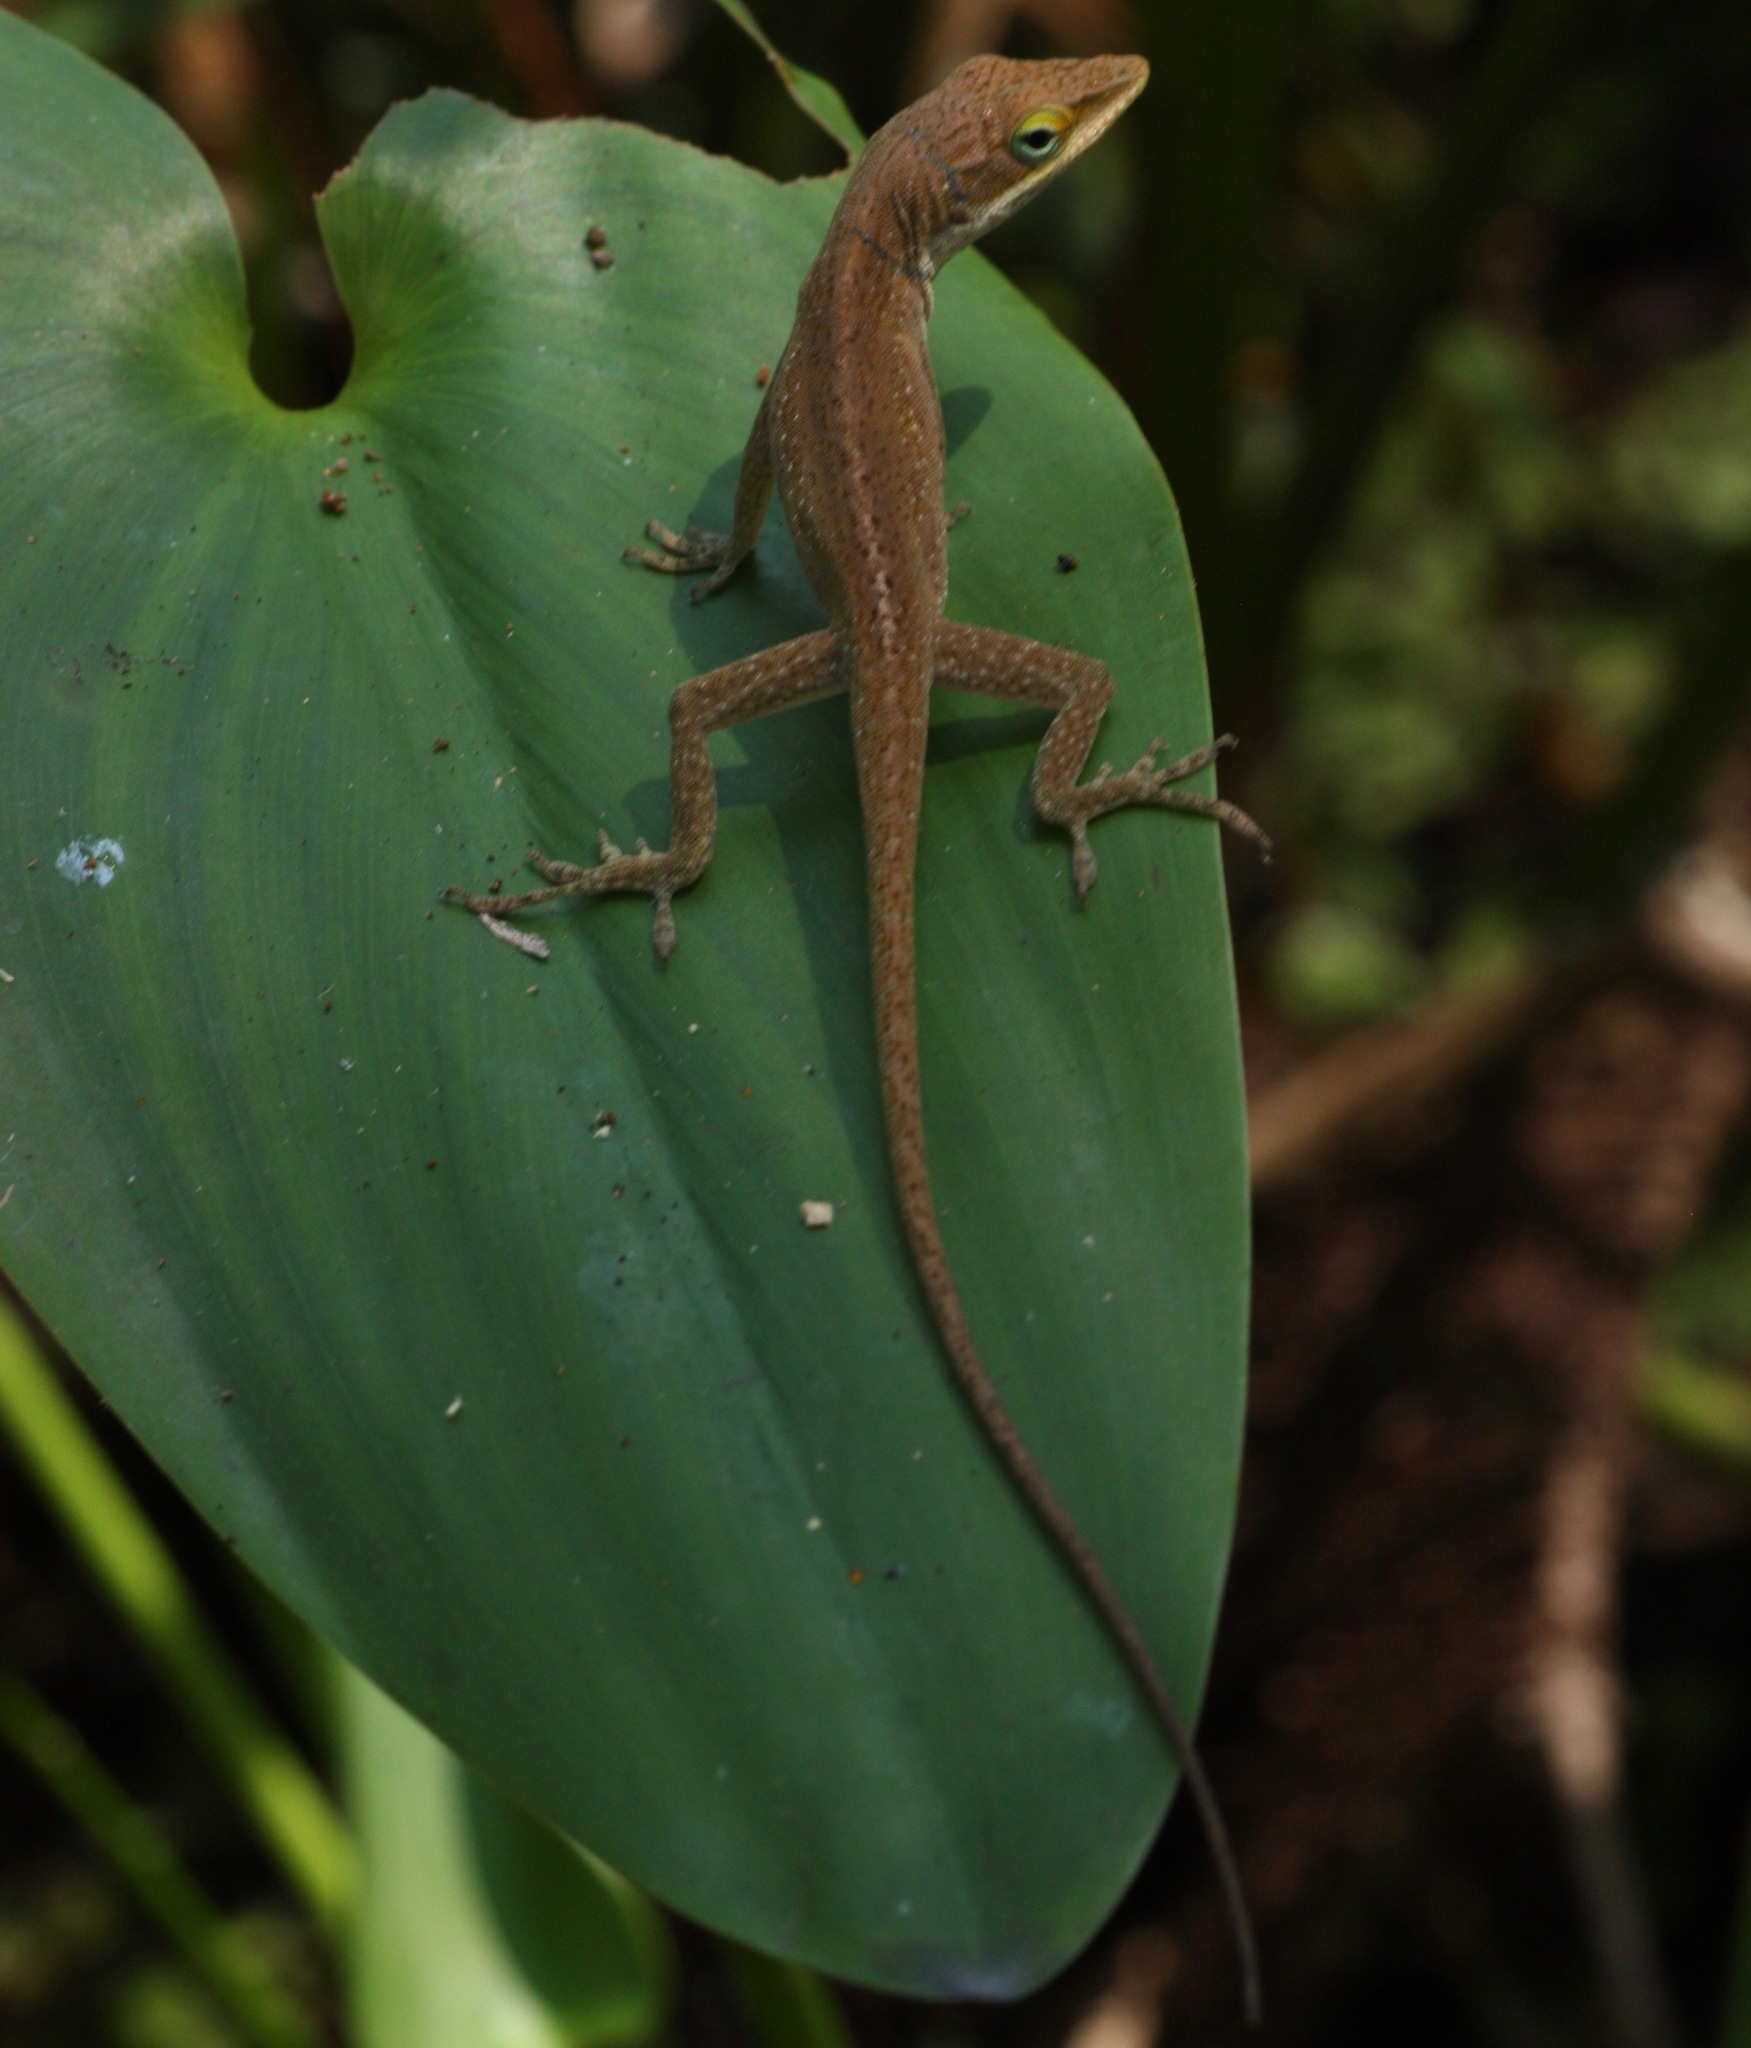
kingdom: Animalia
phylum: Chordata
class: Squamata
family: Dactyloidae
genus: Anolis
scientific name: Anolis carolinensis
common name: Green anole
